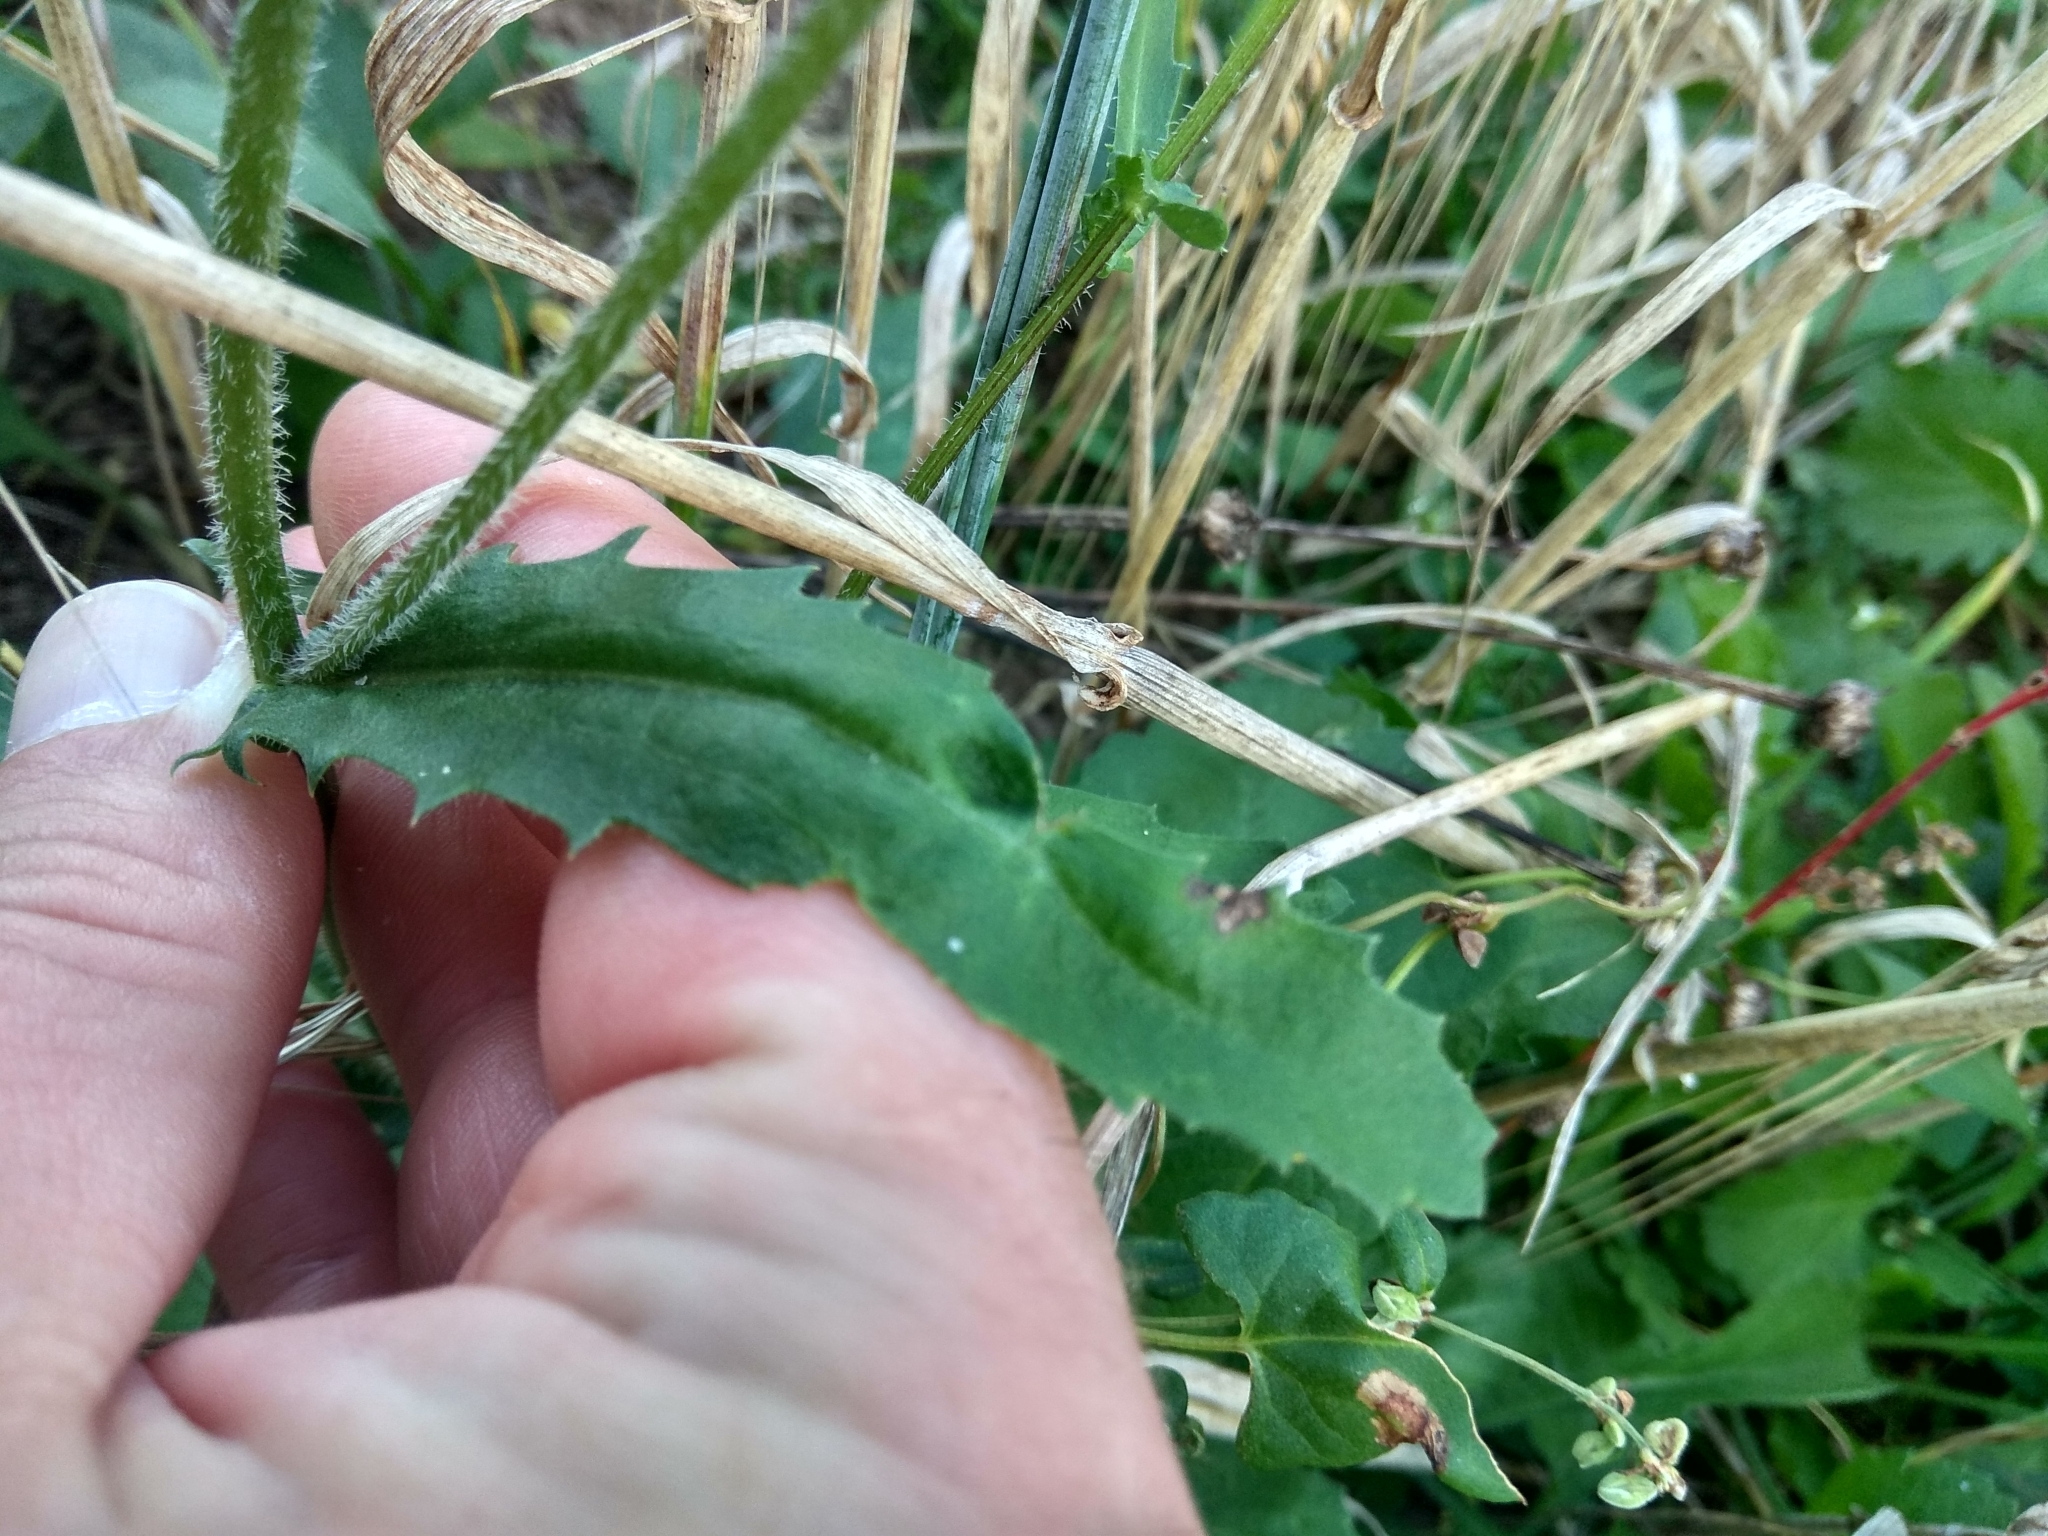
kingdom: Plantae
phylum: Tracheophyta
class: Magnoliopsida
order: Asterales
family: Asteraceae
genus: Leucanthemum
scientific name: Leucanthemum vulgare
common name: Oxeye daisy
